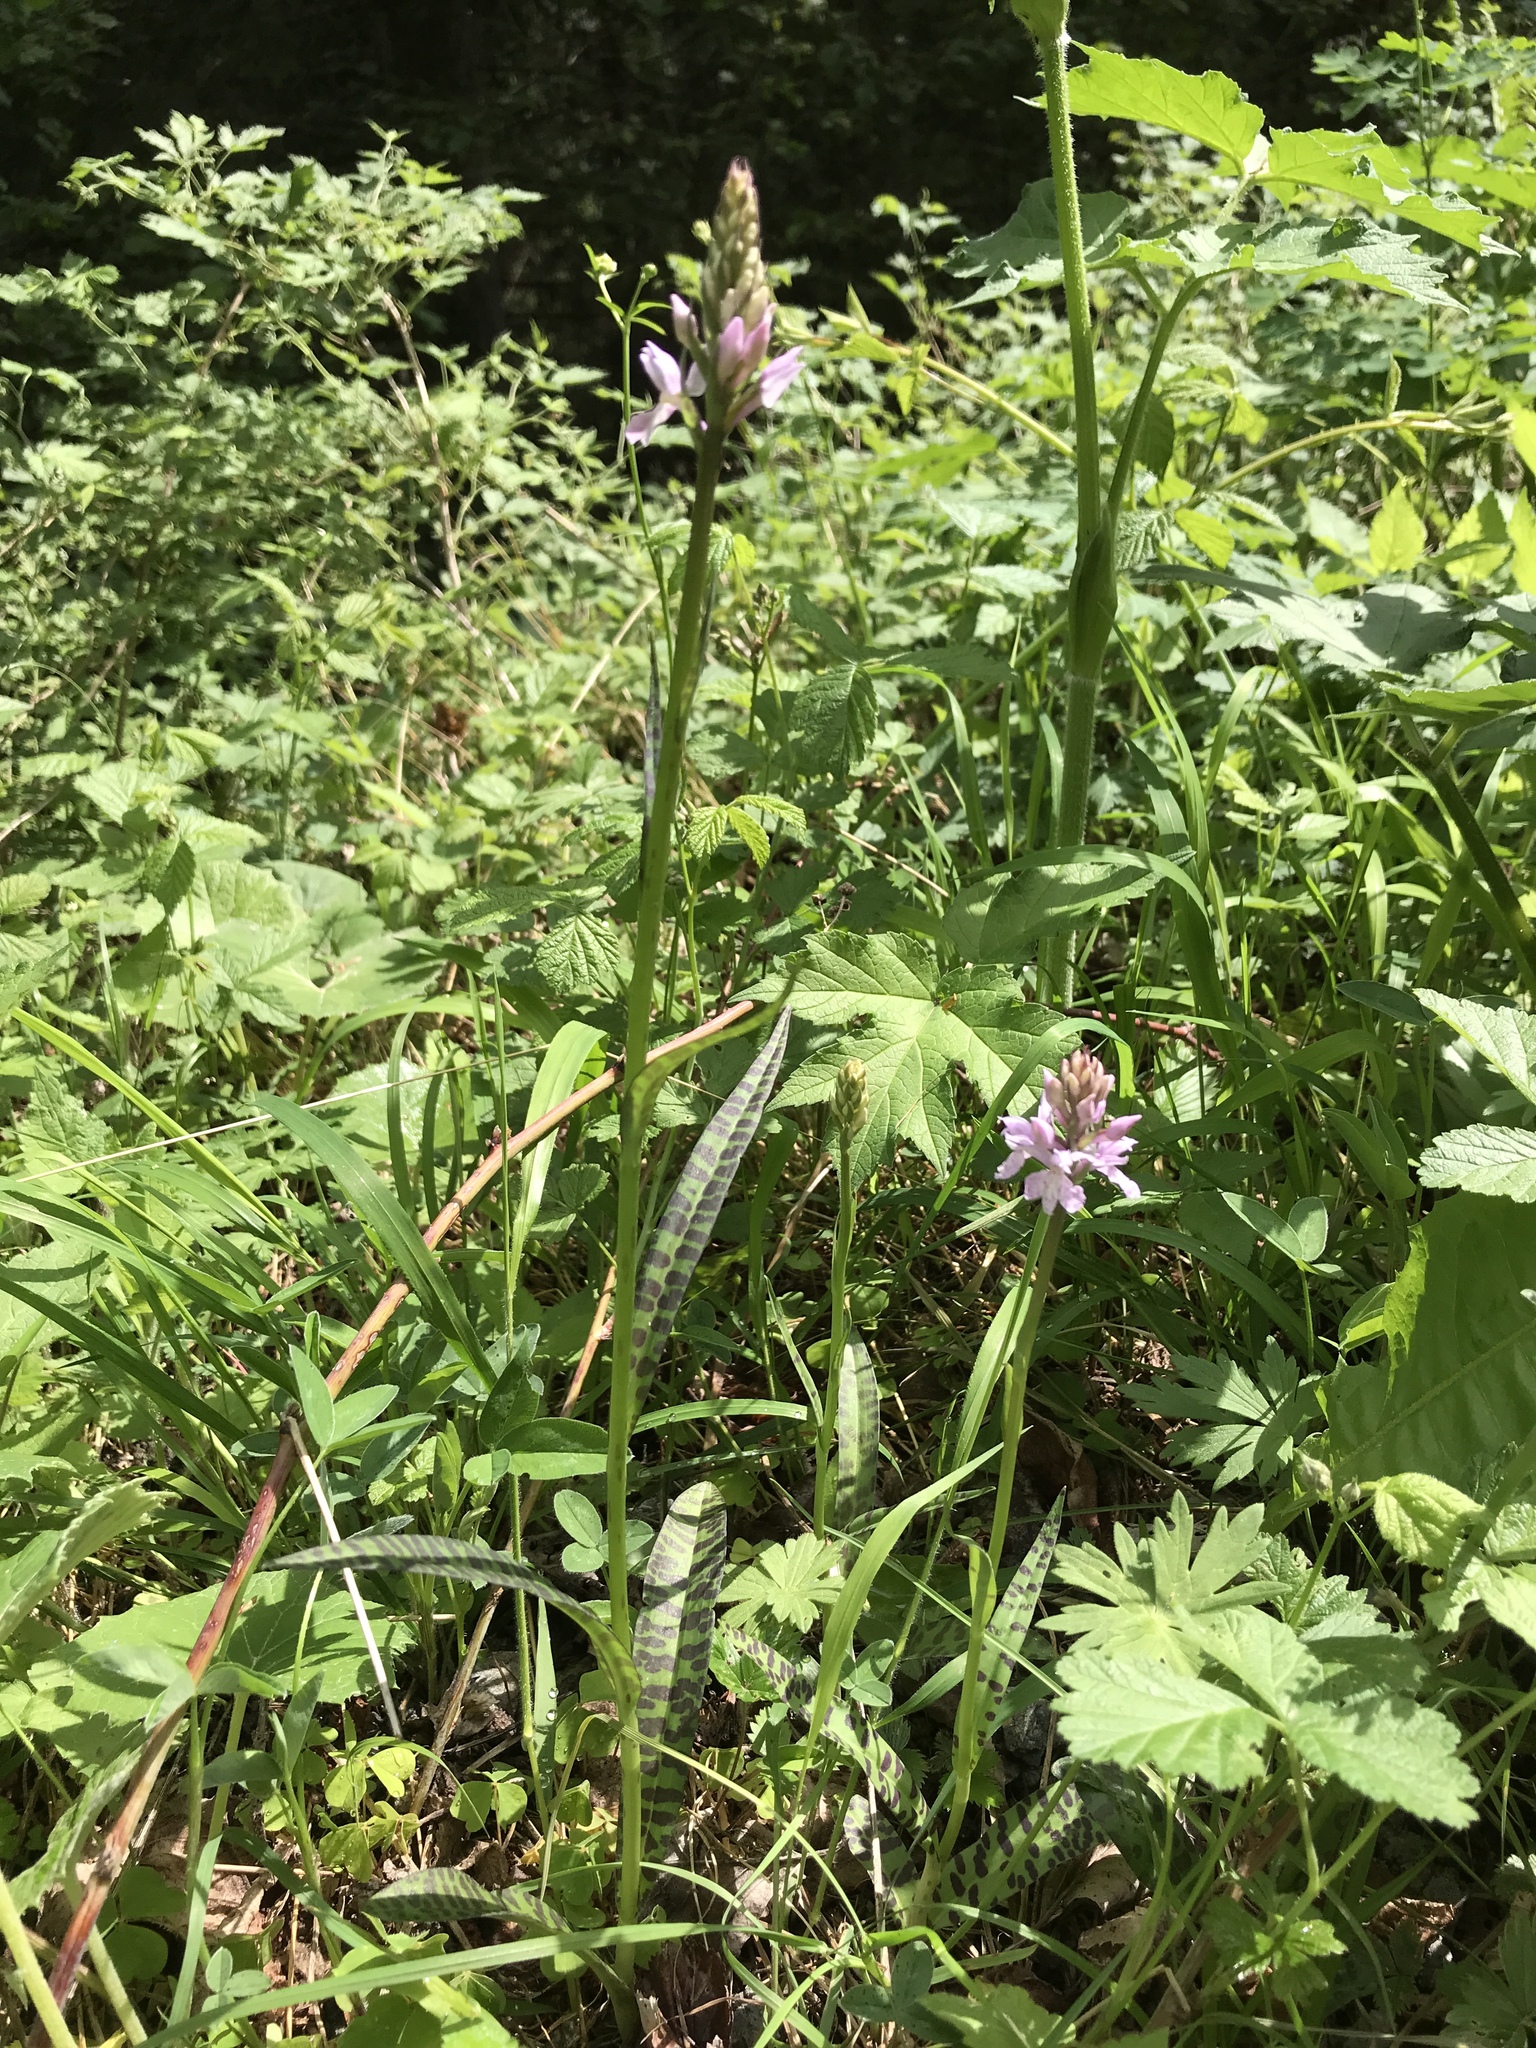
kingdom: Plantae
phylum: Tracheophyta
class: Liliopsida
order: Asparagales
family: Orchidaceae
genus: Dactylorhiza
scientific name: Dactylorhiza maculata
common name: Heath spotted-orchid
